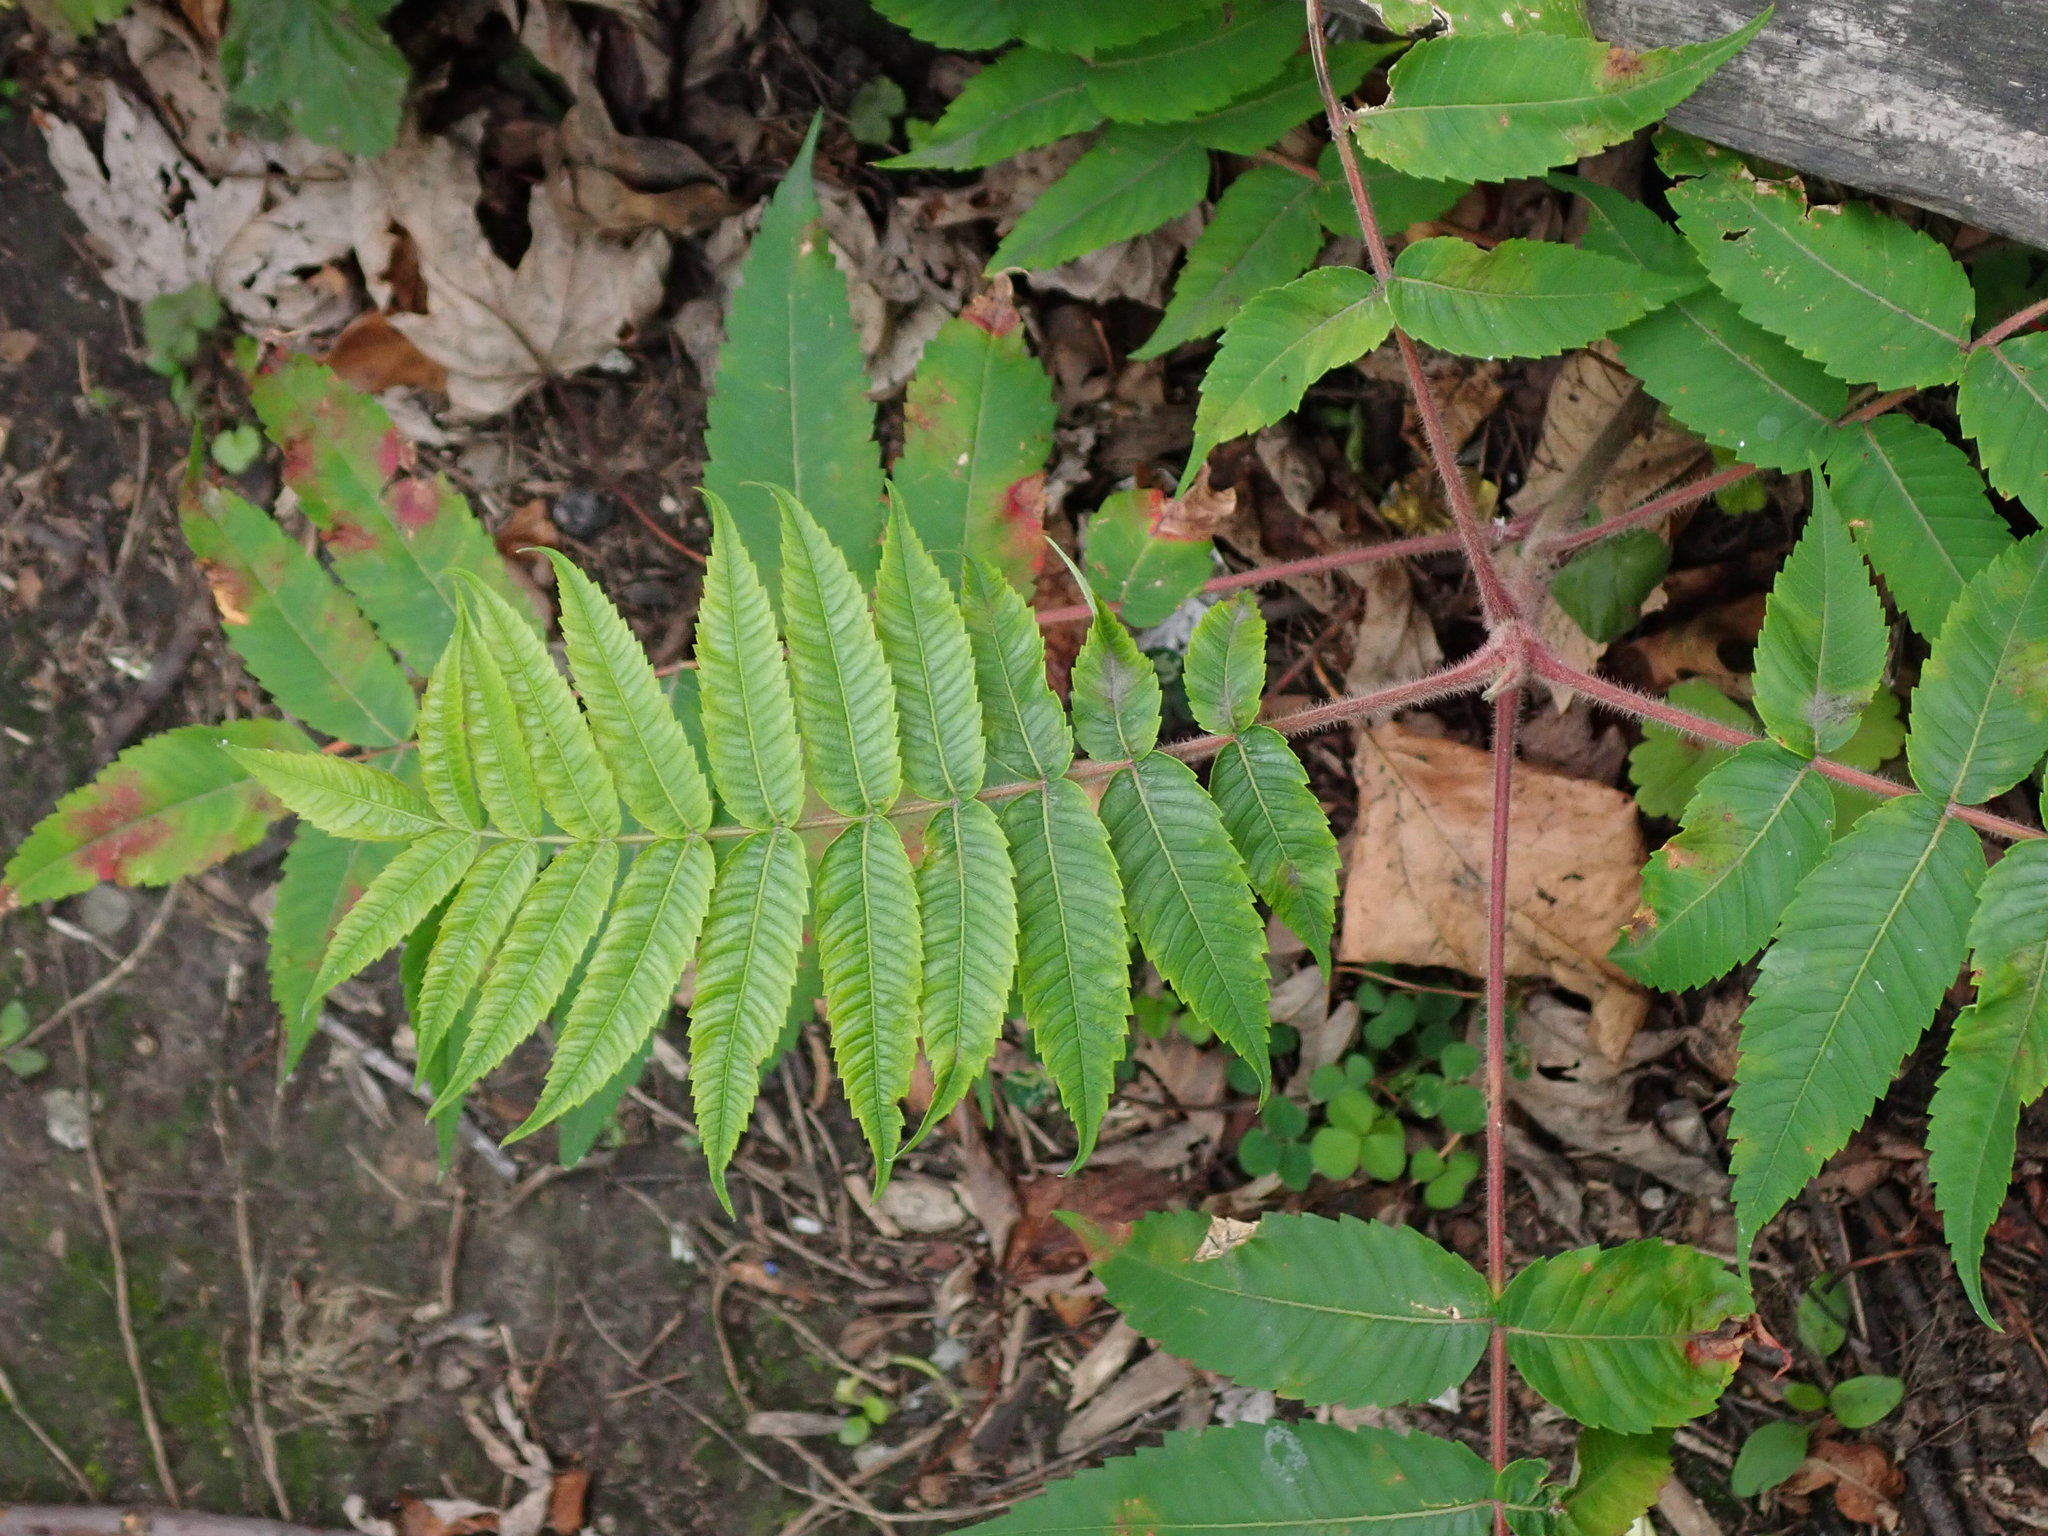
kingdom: Plantae
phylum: Tracheophyta
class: Magnoliopsida
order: Sapindales
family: Anacardiaceae
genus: Rhus
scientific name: Rhus typhina
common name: Staghorn sumac
